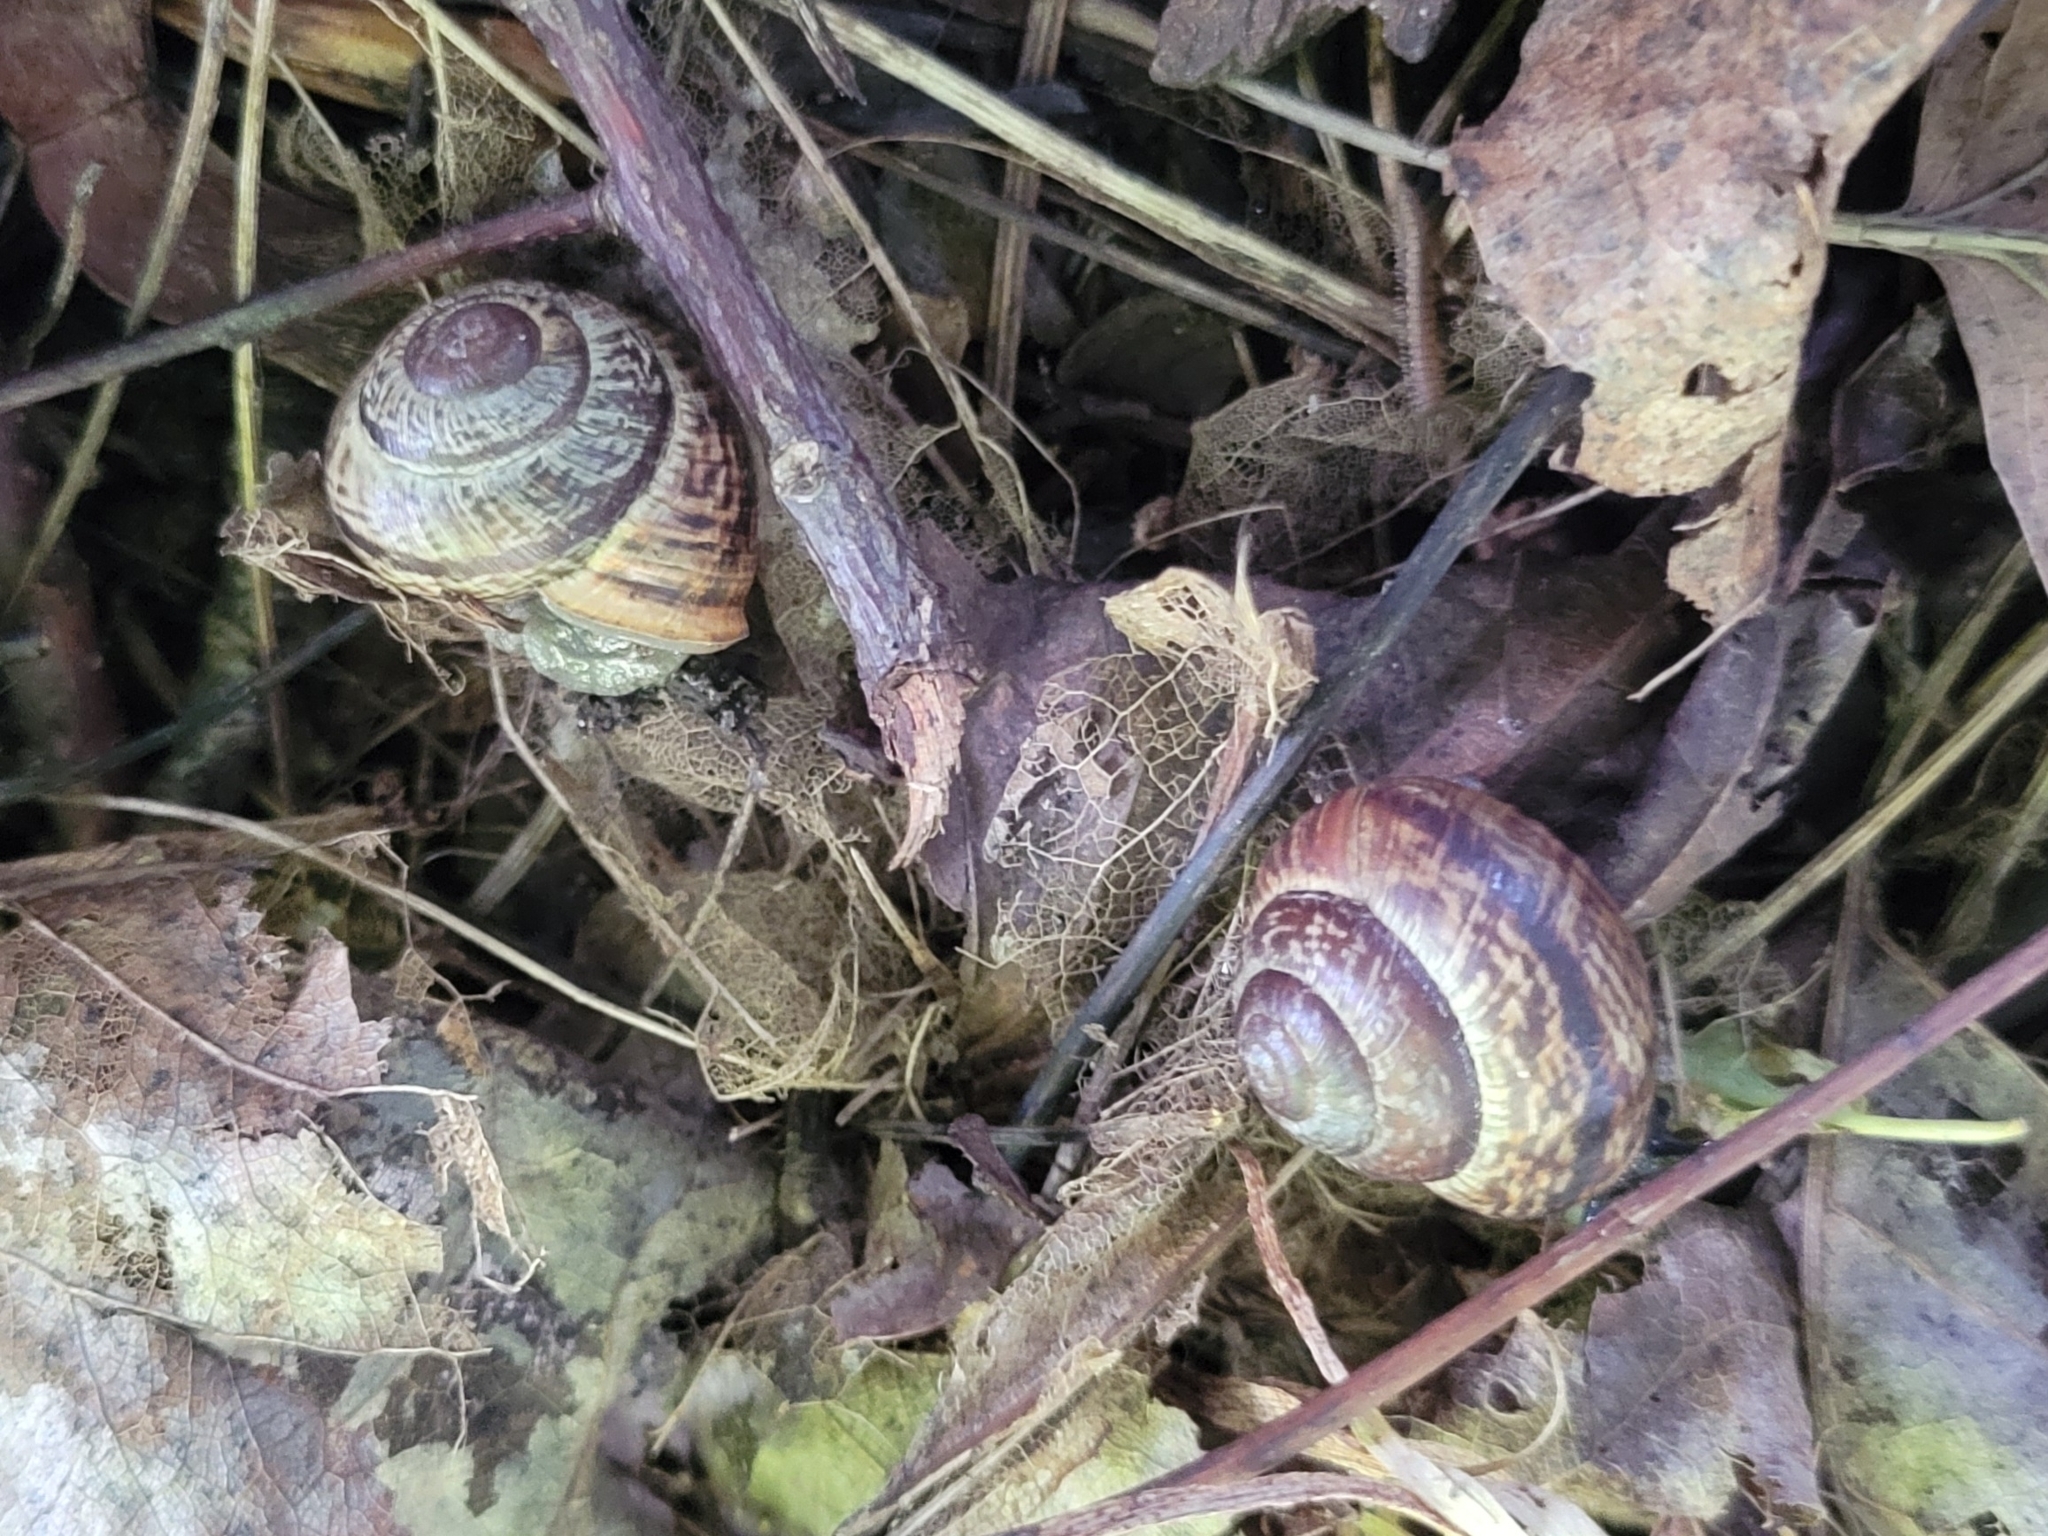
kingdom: Animalia
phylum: Mollusca
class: Gastropoda
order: Stylommatophora
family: Helicidae
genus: Arianta
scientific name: Arianta arbustorum
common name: Copse snail
